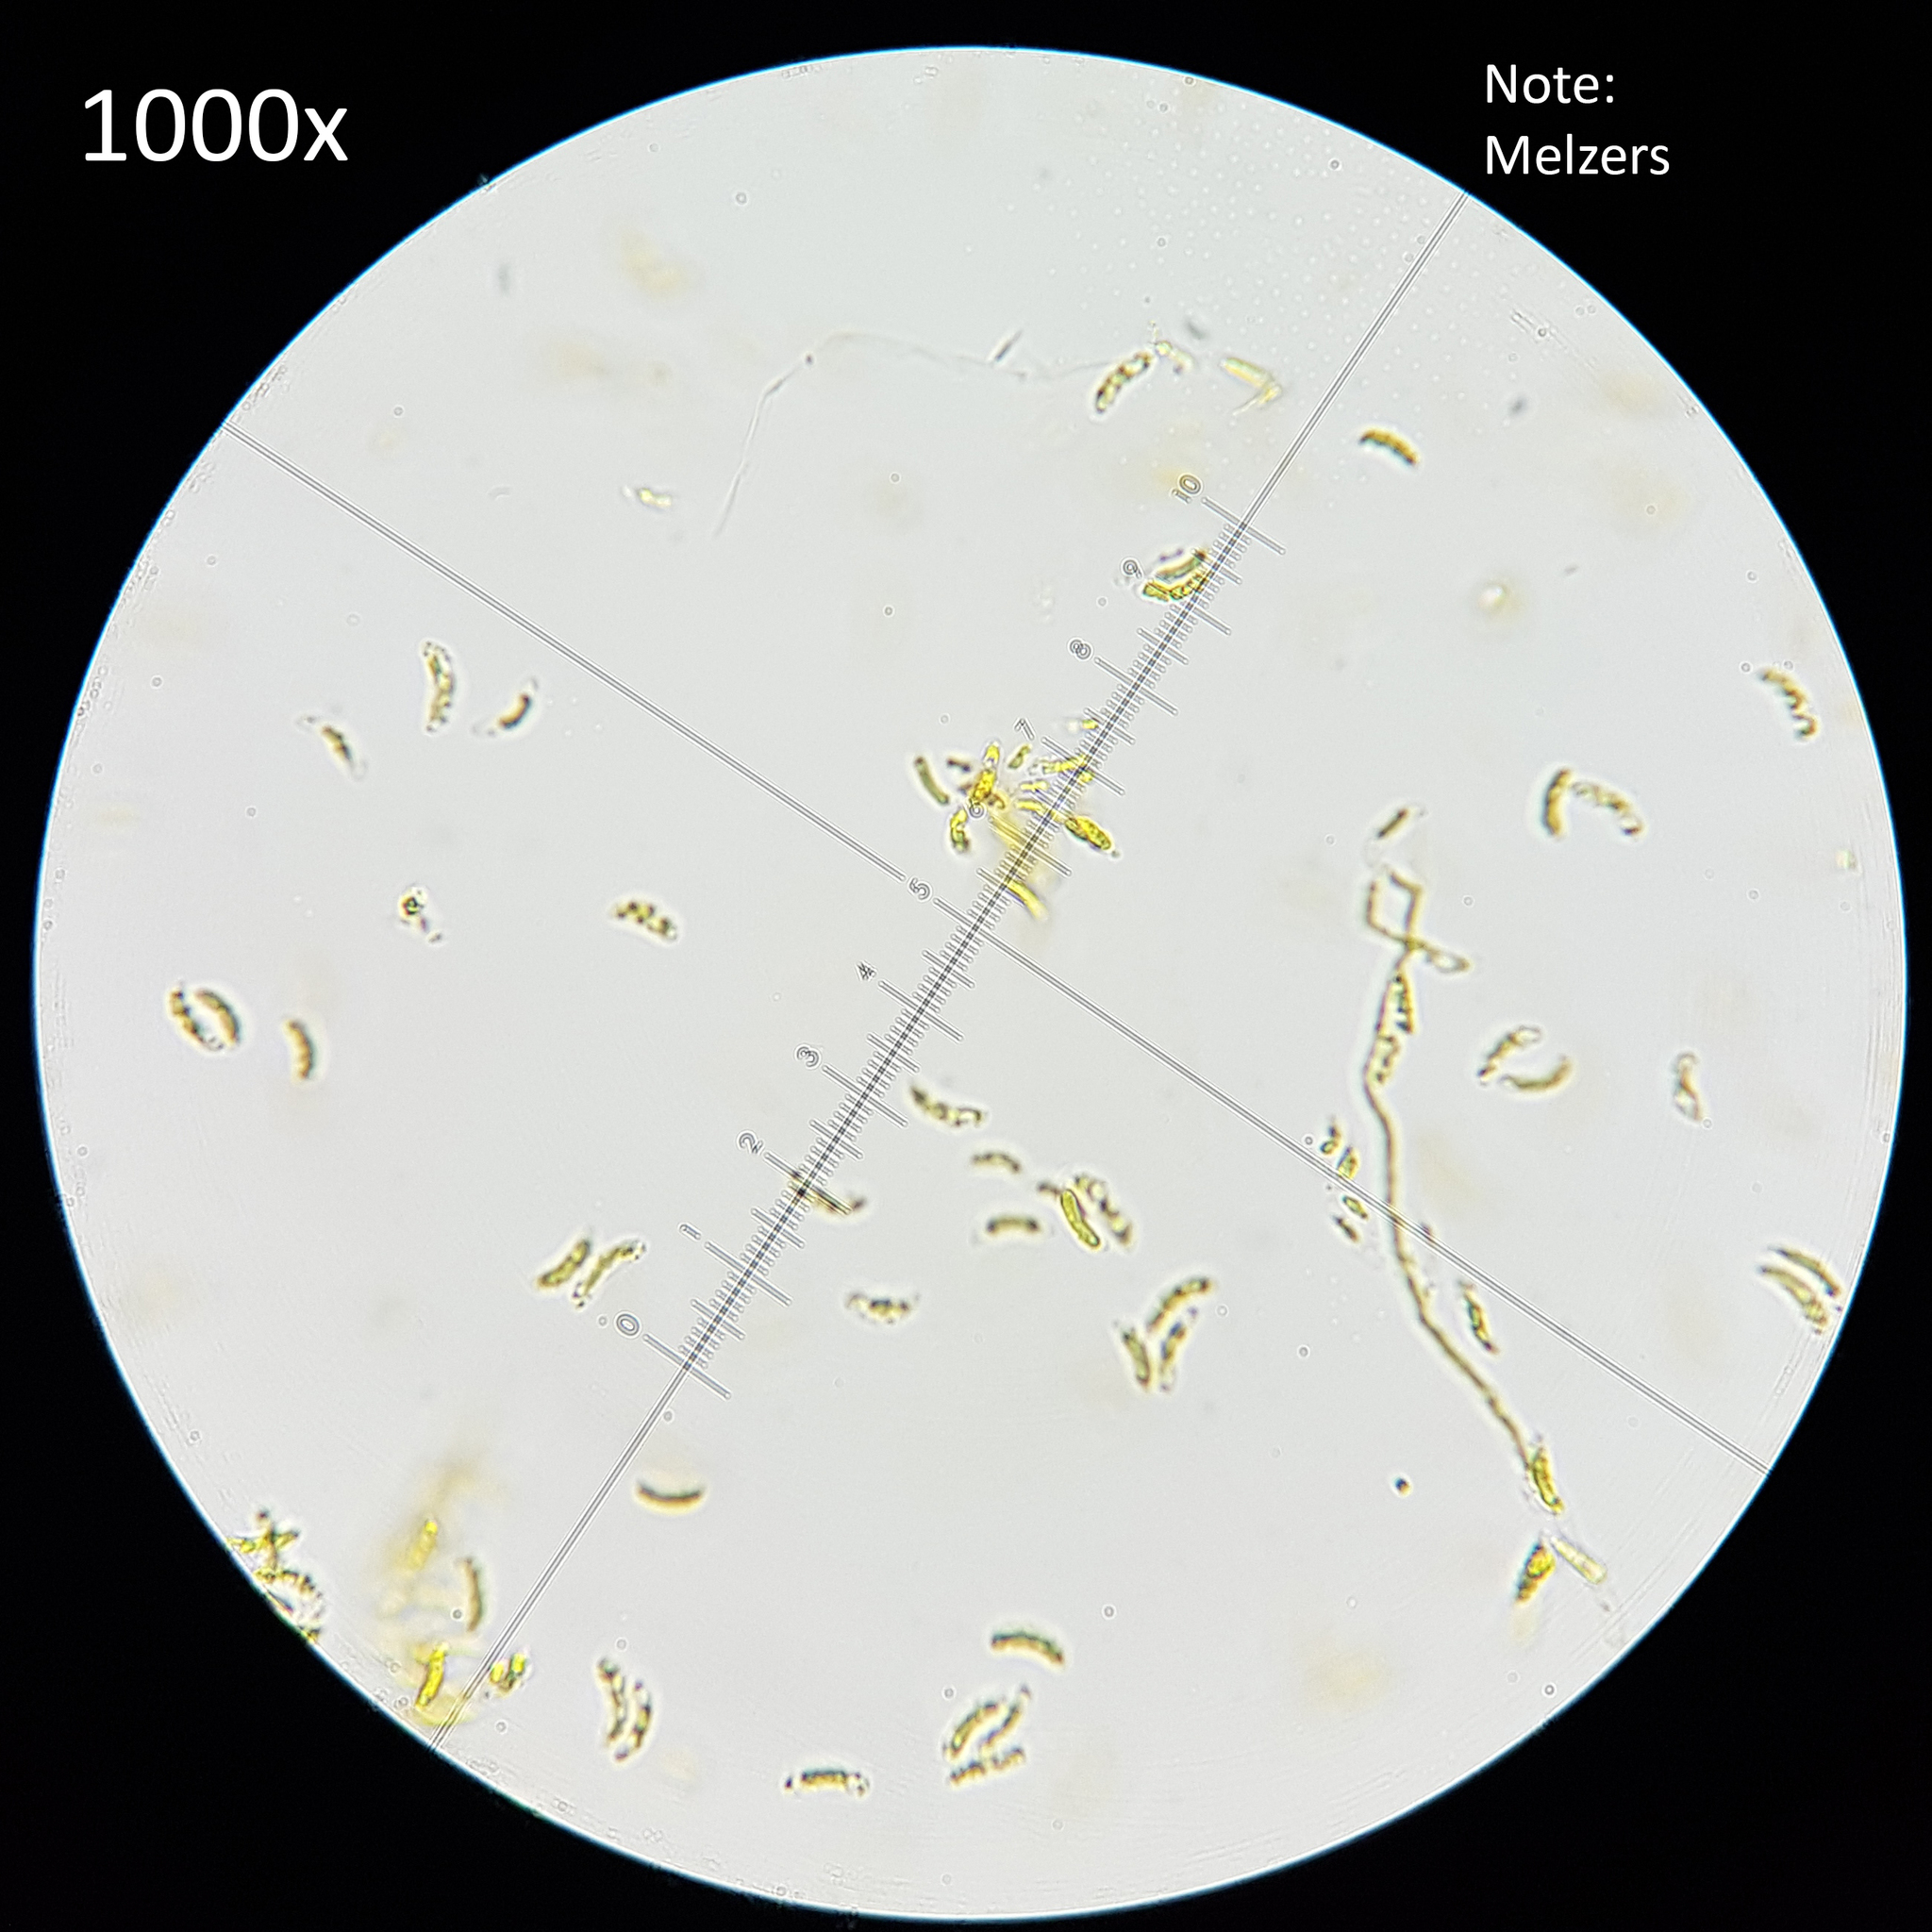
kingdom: Fungi
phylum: Basidiomycota
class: Agaricomycetes
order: Polyporales
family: Polyporaceae
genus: Daedaleopsis
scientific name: Daedaleopsis confragosa
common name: Blushing bracket
